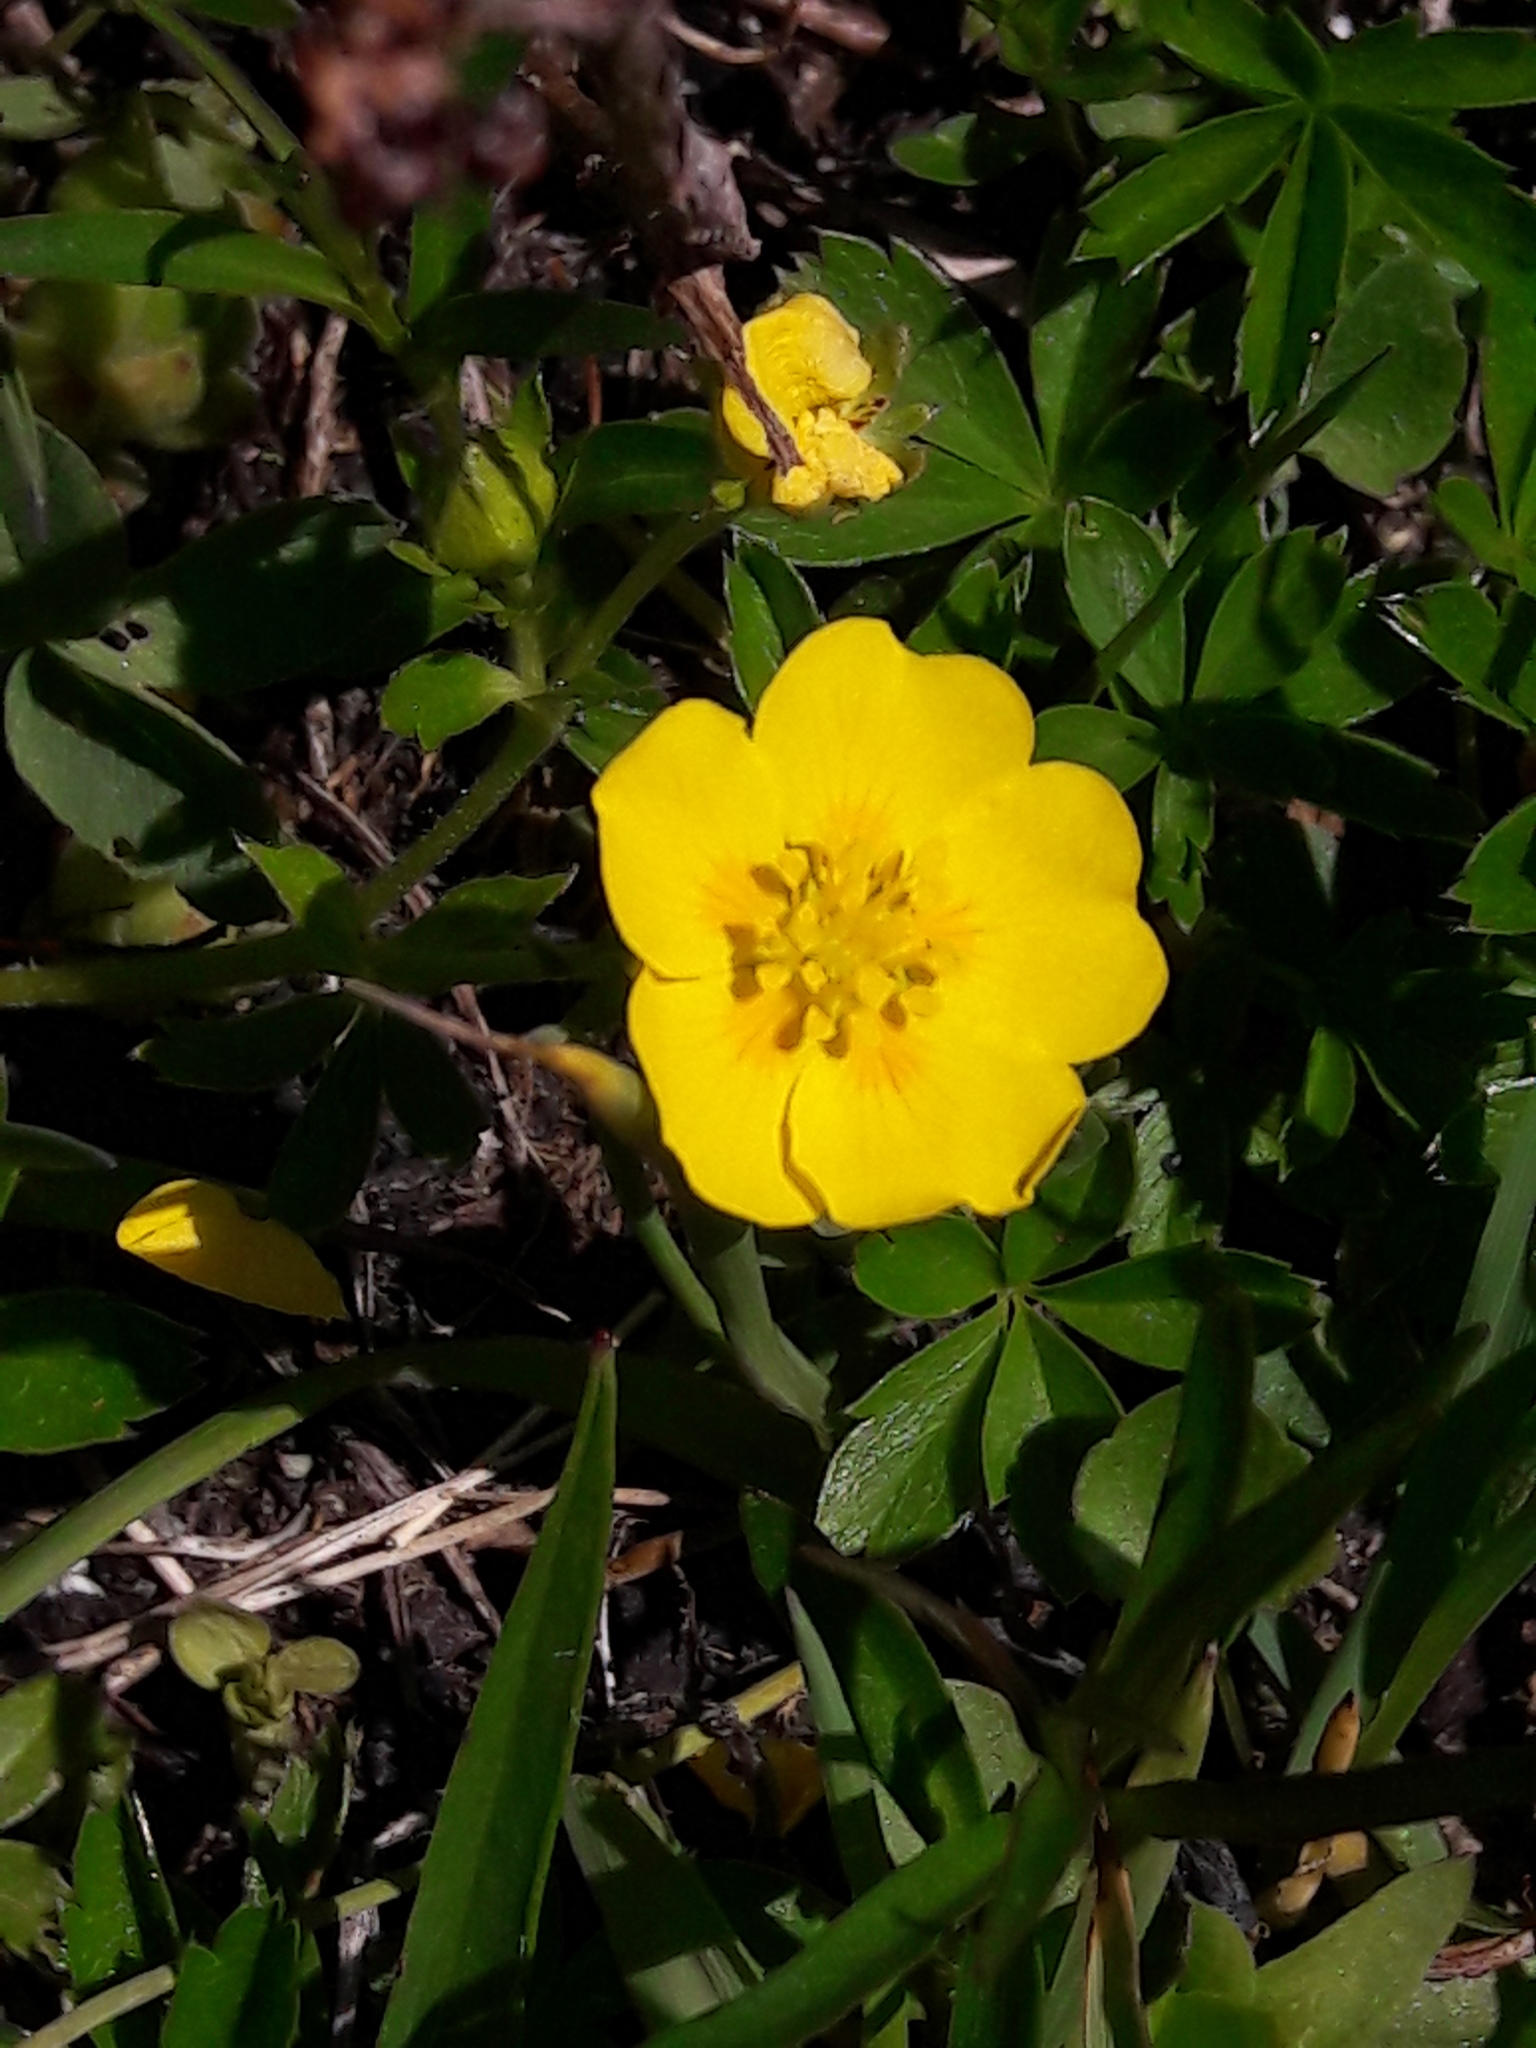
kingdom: Plantae
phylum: Tracheophyta
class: Magnoliopsida
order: Rosales
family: Rosaceae
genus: Potentilla
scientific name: Potentilla aurea
